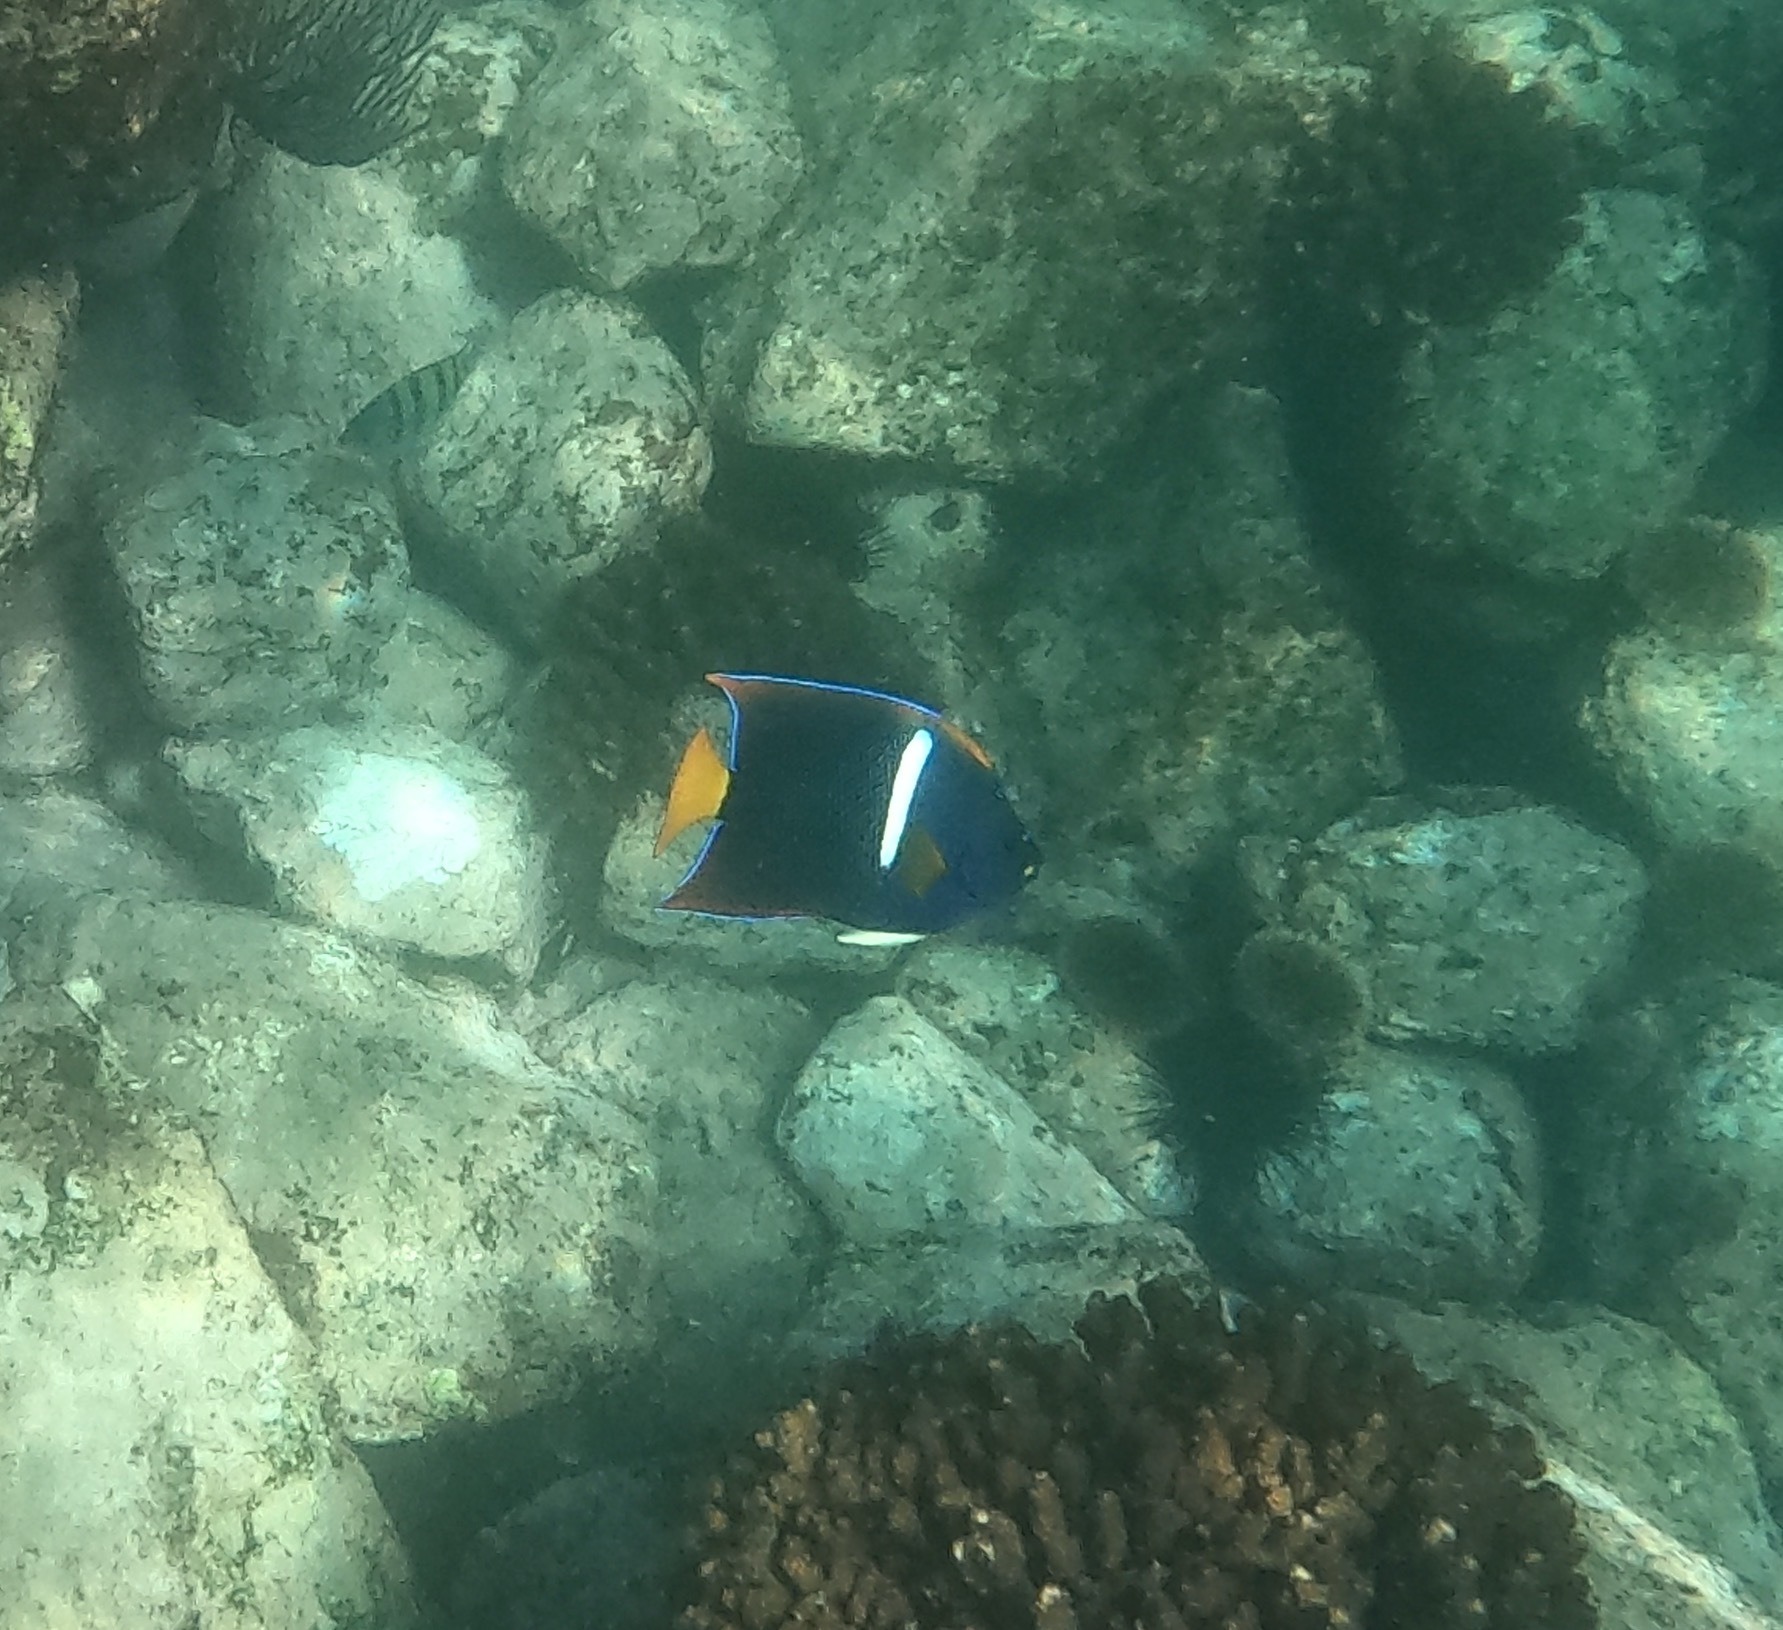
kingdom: Animalia
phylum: Chordata
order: Perciformes
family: Pomacanthidae
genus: Holacanthus
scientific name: Holacanthus passer
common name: King angelfish
